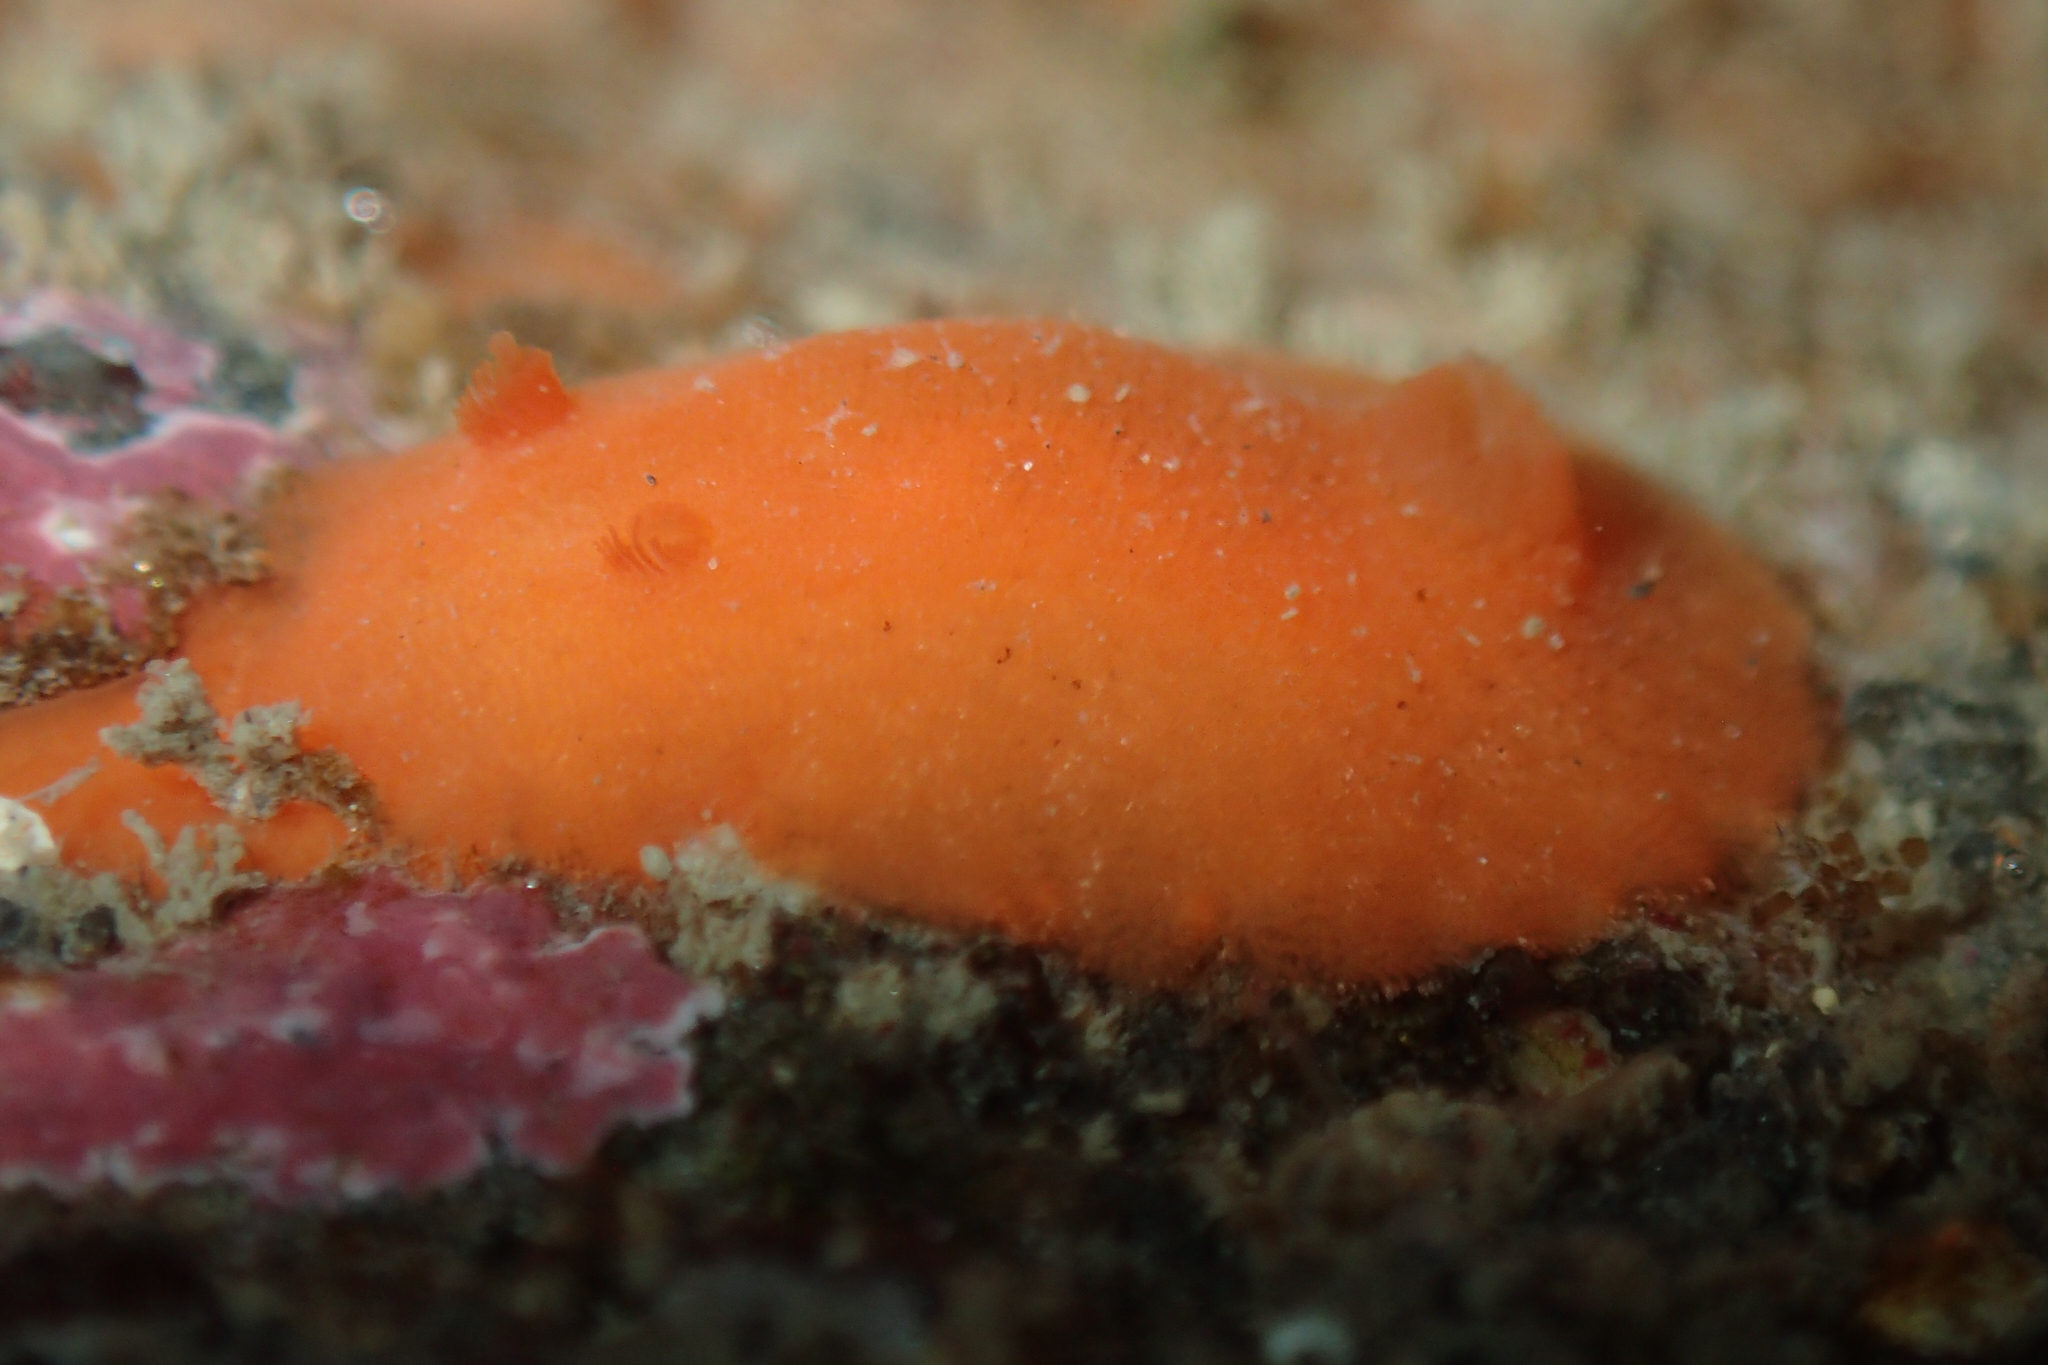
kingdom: Animalia
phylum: Mollusca
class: Gastropoda
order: Nudibranchia
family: Discodorididae
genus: Rostanga
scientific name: Rostanga pulchra
